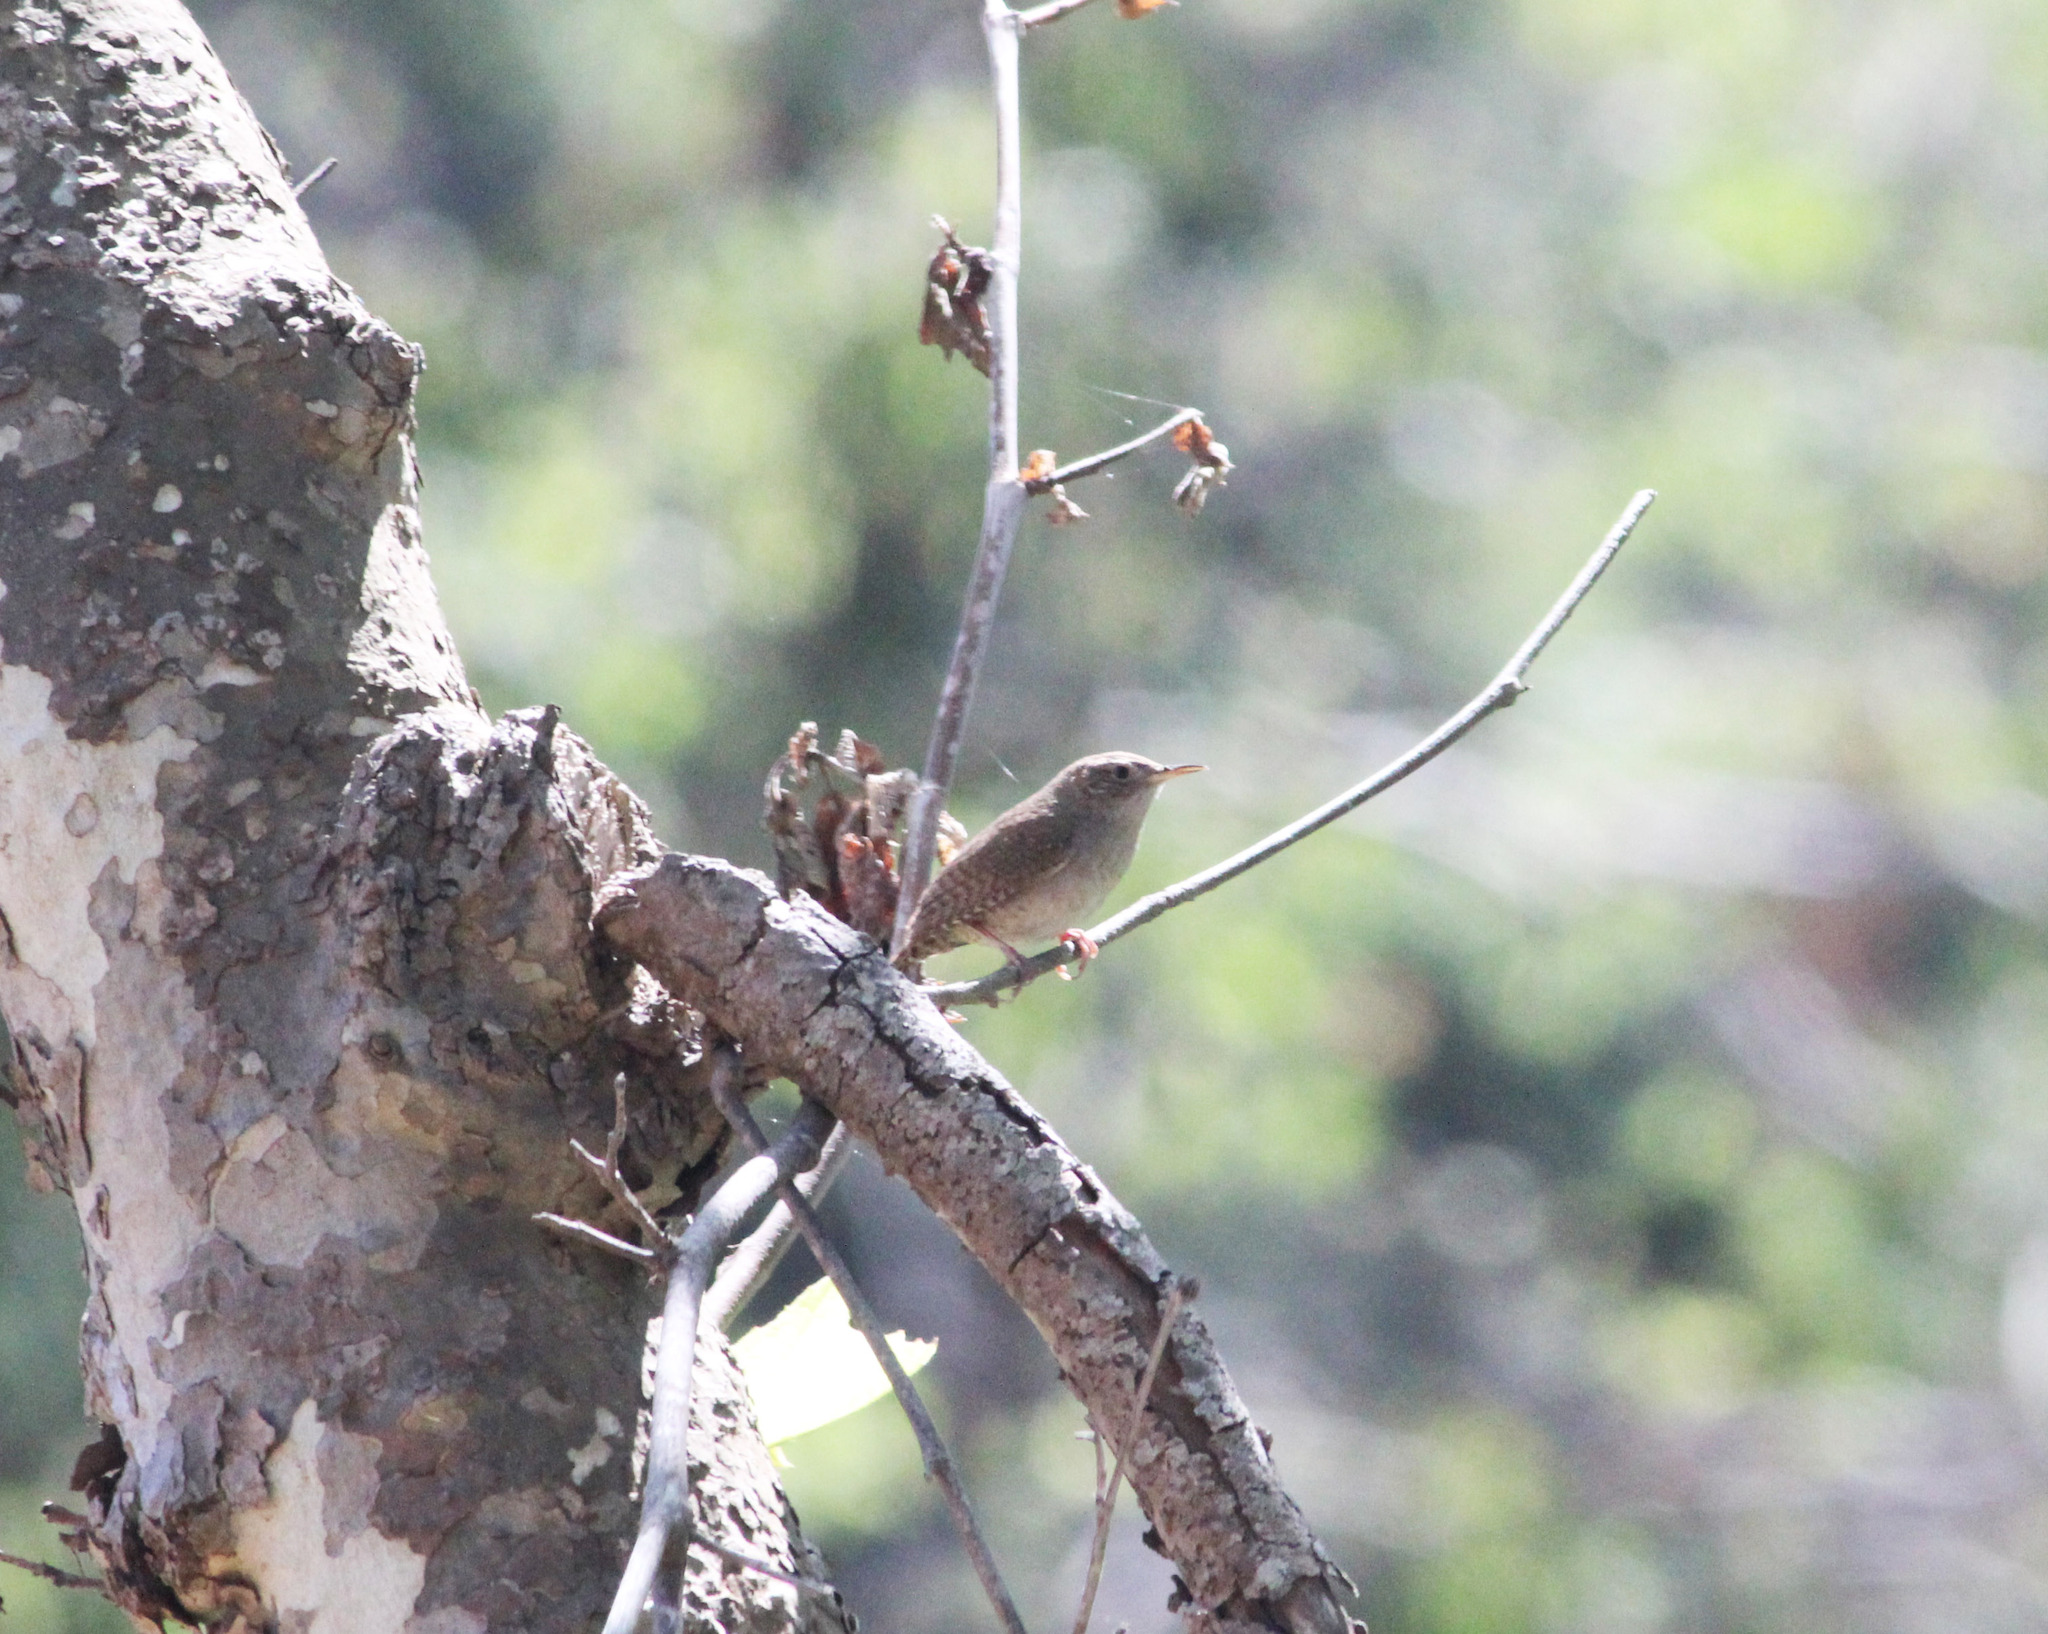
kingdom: Animalia
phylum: Chordata
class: Aves
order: Passeriformes
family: Troglodytidae
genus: Troglodytes
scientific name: Troglodytes aedon
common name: House wren
